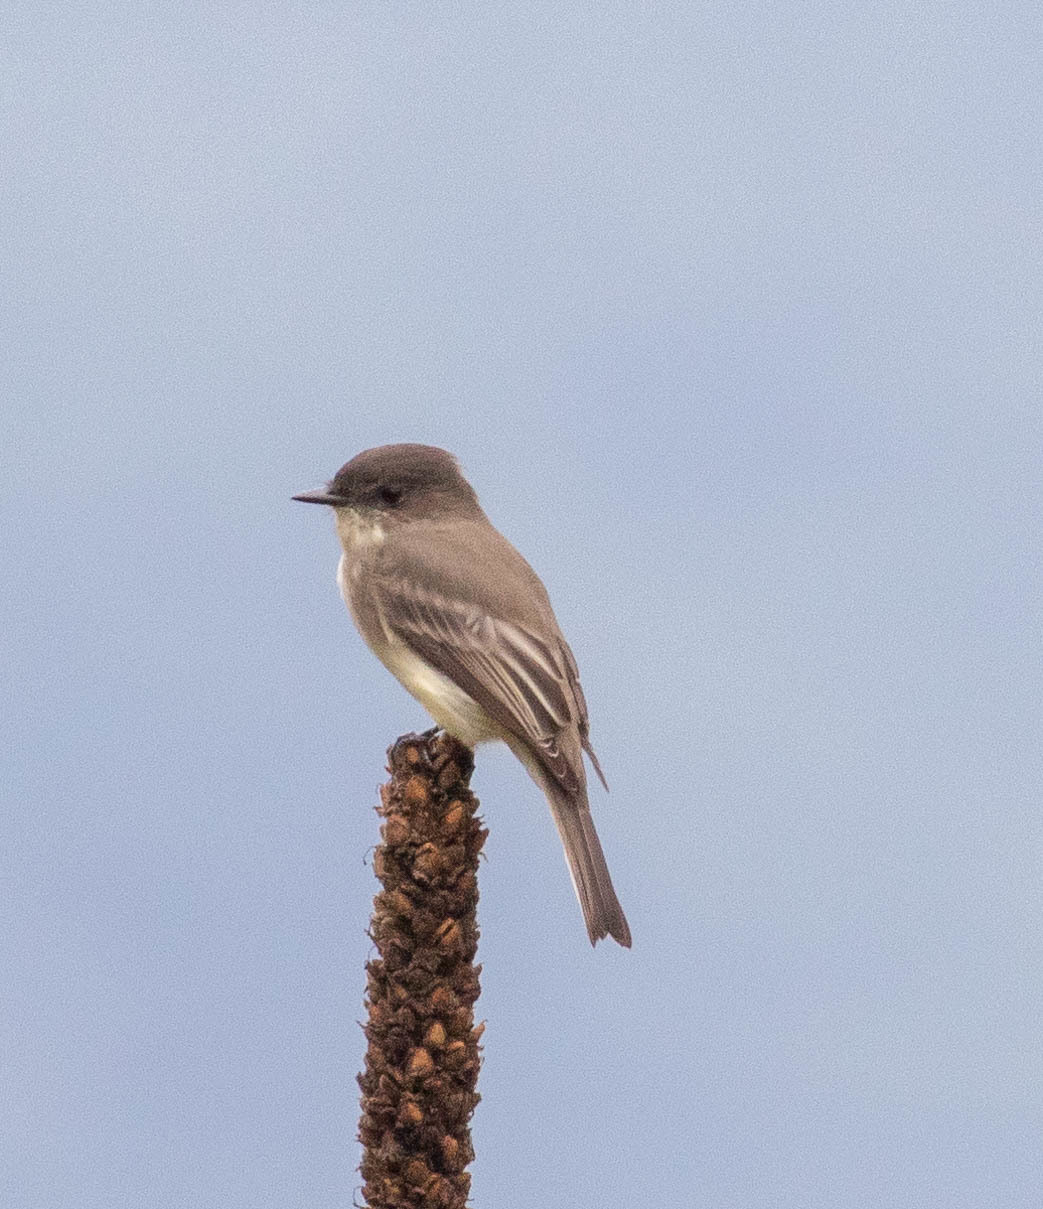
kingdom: Animalia
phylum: Chordata
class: Aves
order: Passeriformes
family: Tyrannidae
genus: Sayornis
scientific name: Sayornis phoebe
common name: Eastern phoebe
